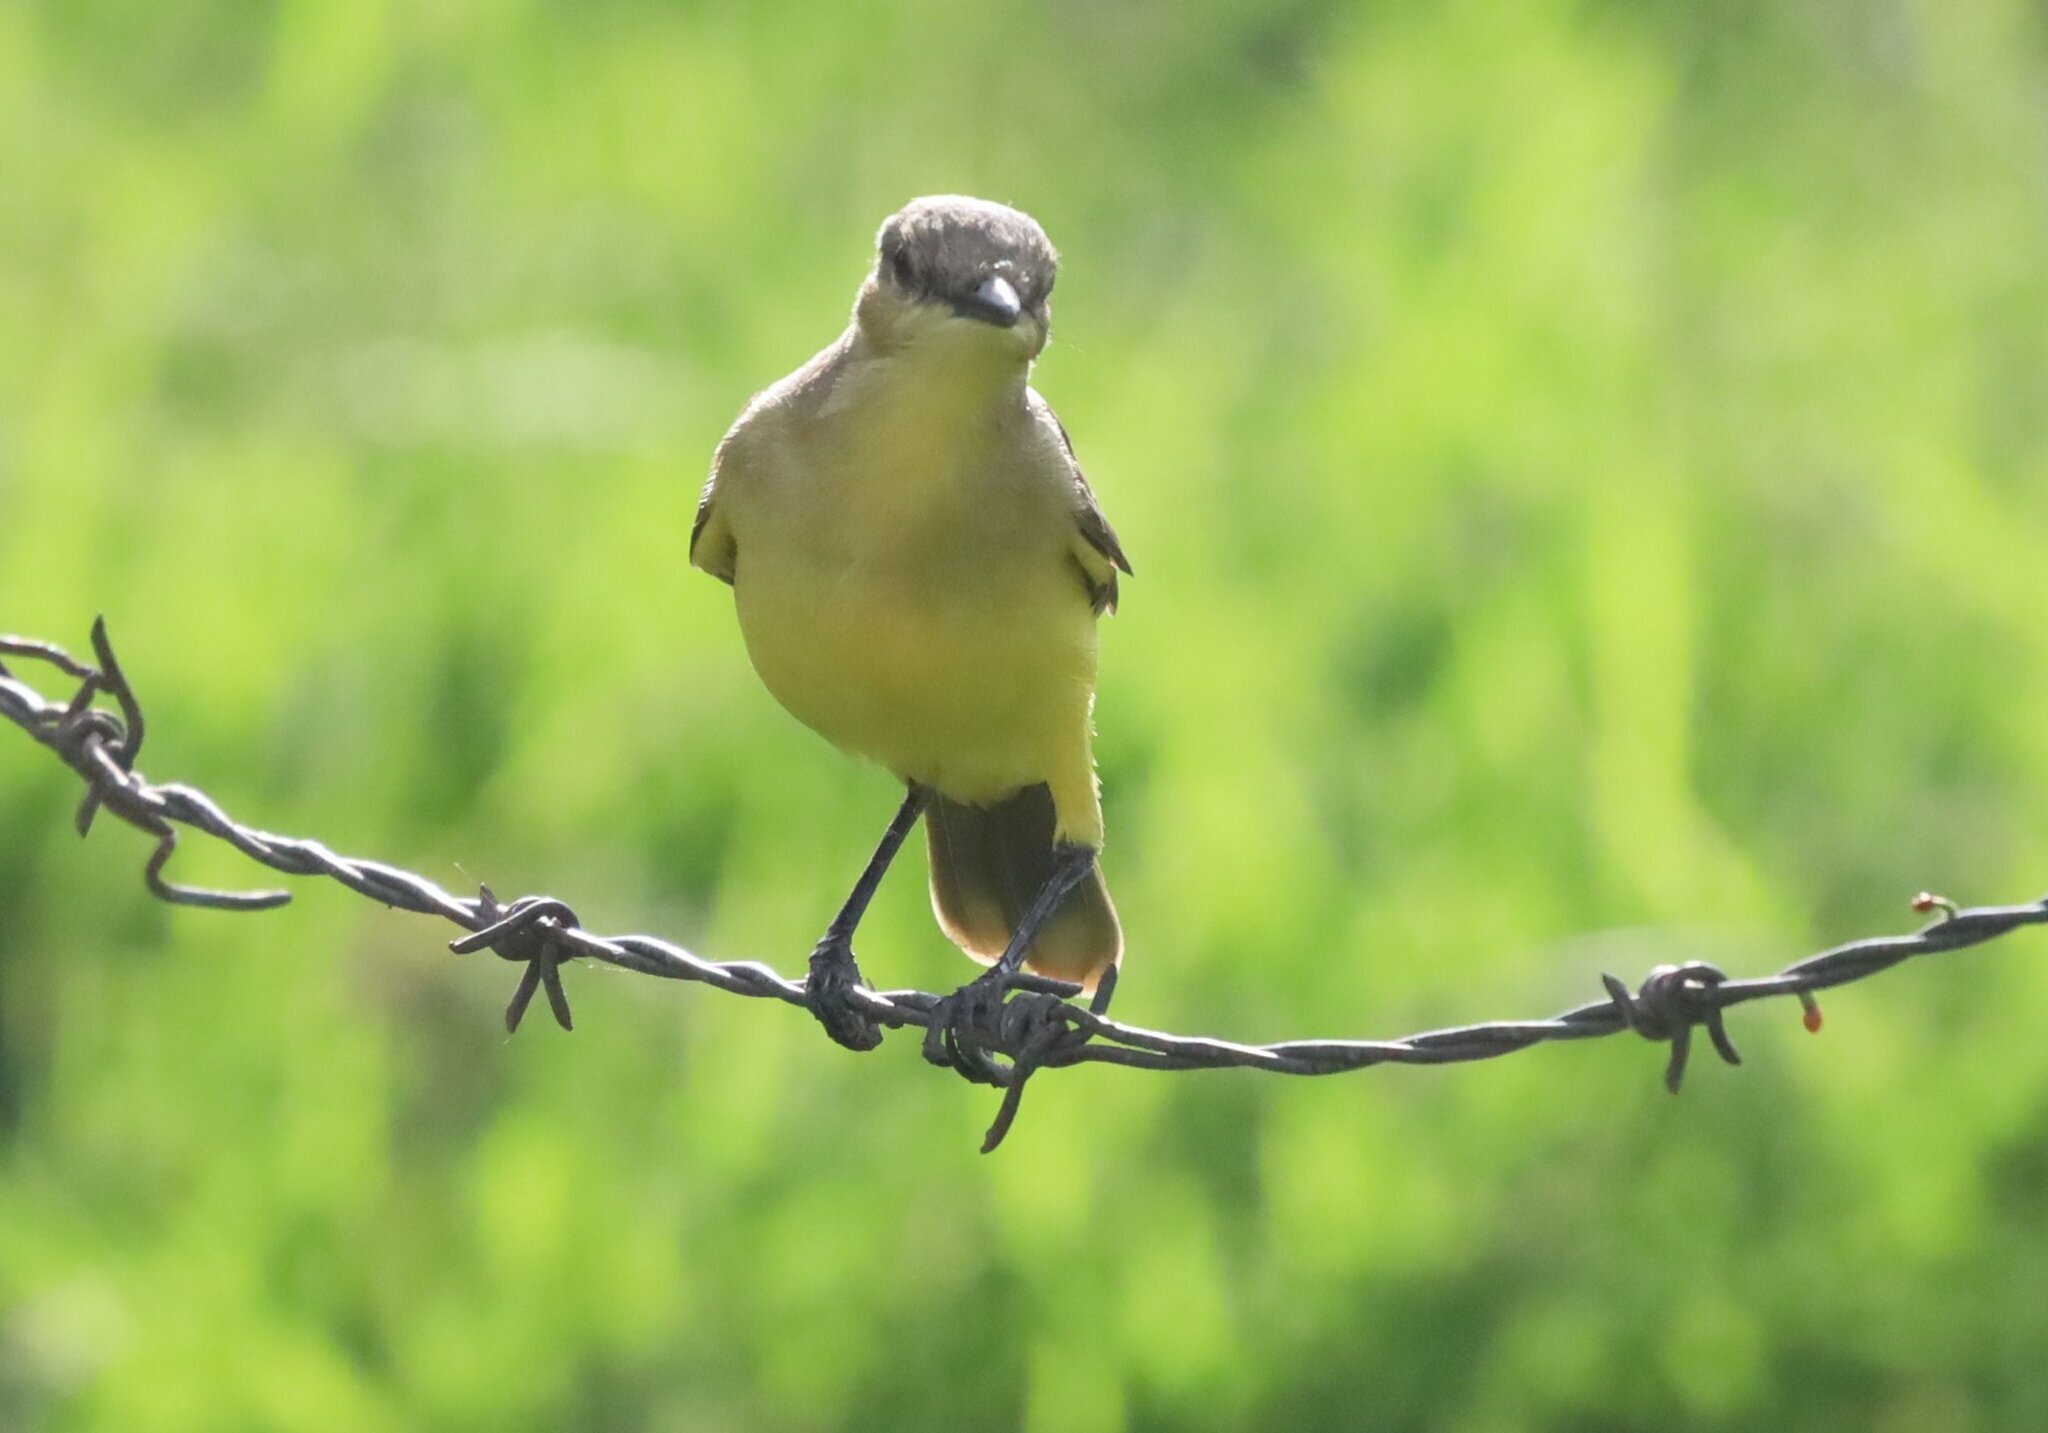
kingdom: Animalia
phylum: Chordata
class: Aves
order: Passeriformes
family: Tyrannidae
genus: Machetornis
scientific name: Machetornis rixosa
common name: Cattle tyrant
